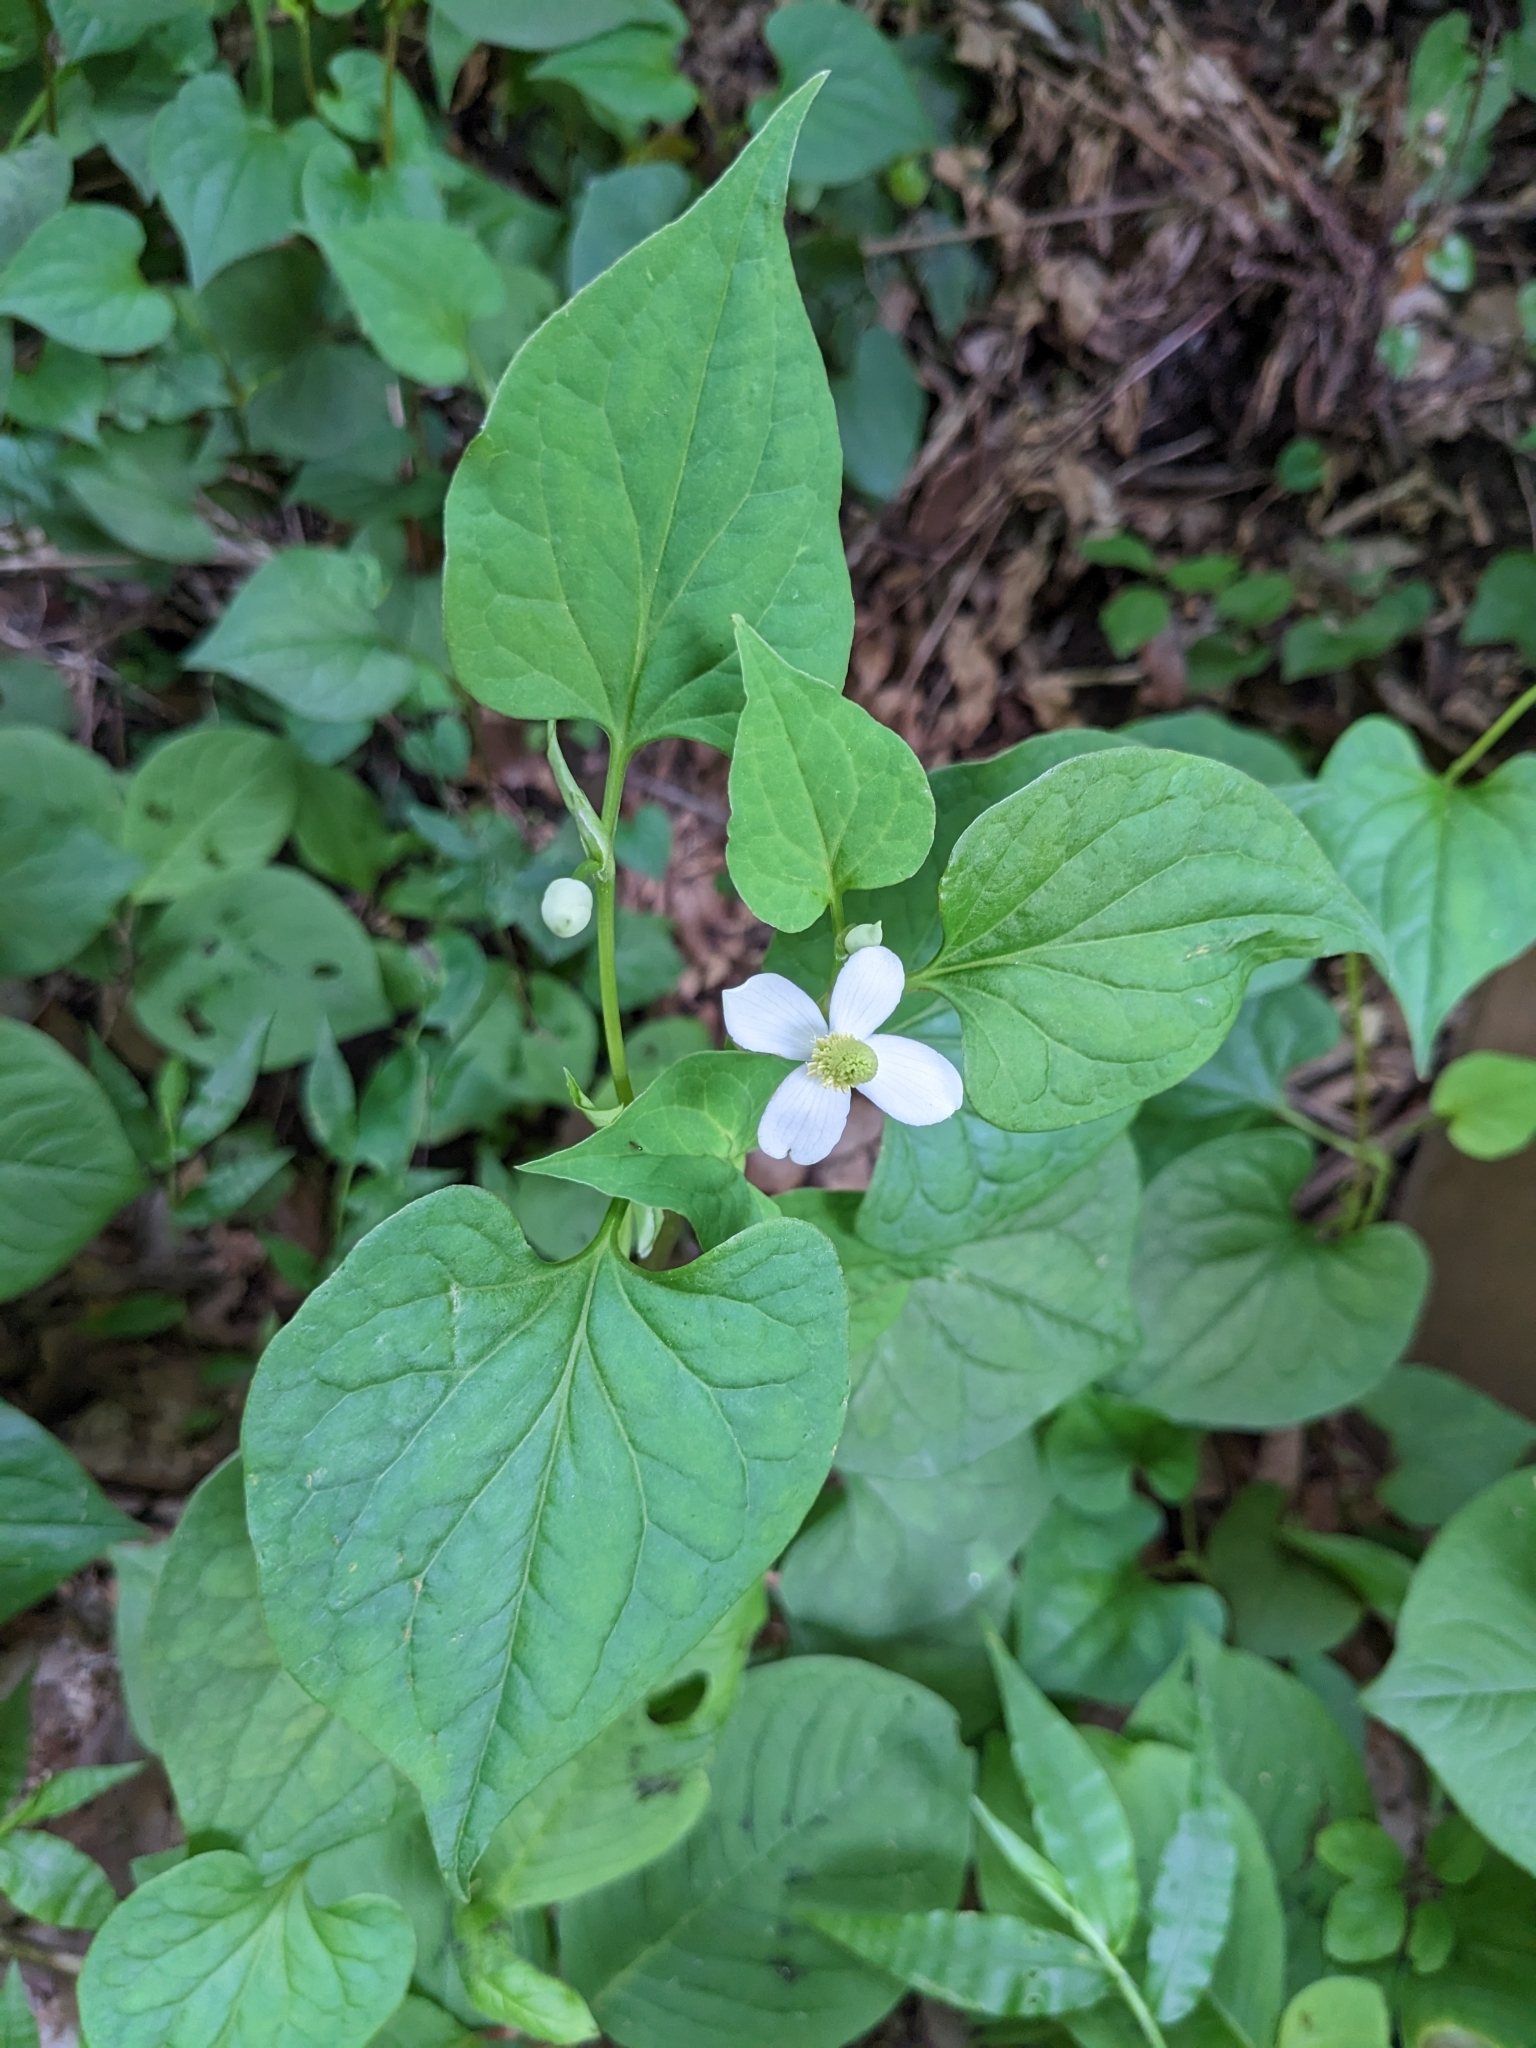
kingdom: Plantae
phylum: Tracheophyta
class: Magnoliopsida
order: Piperales
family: Saururaceae
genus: Houttuynia
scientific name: Houttuynia cordata
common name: Chameleon
